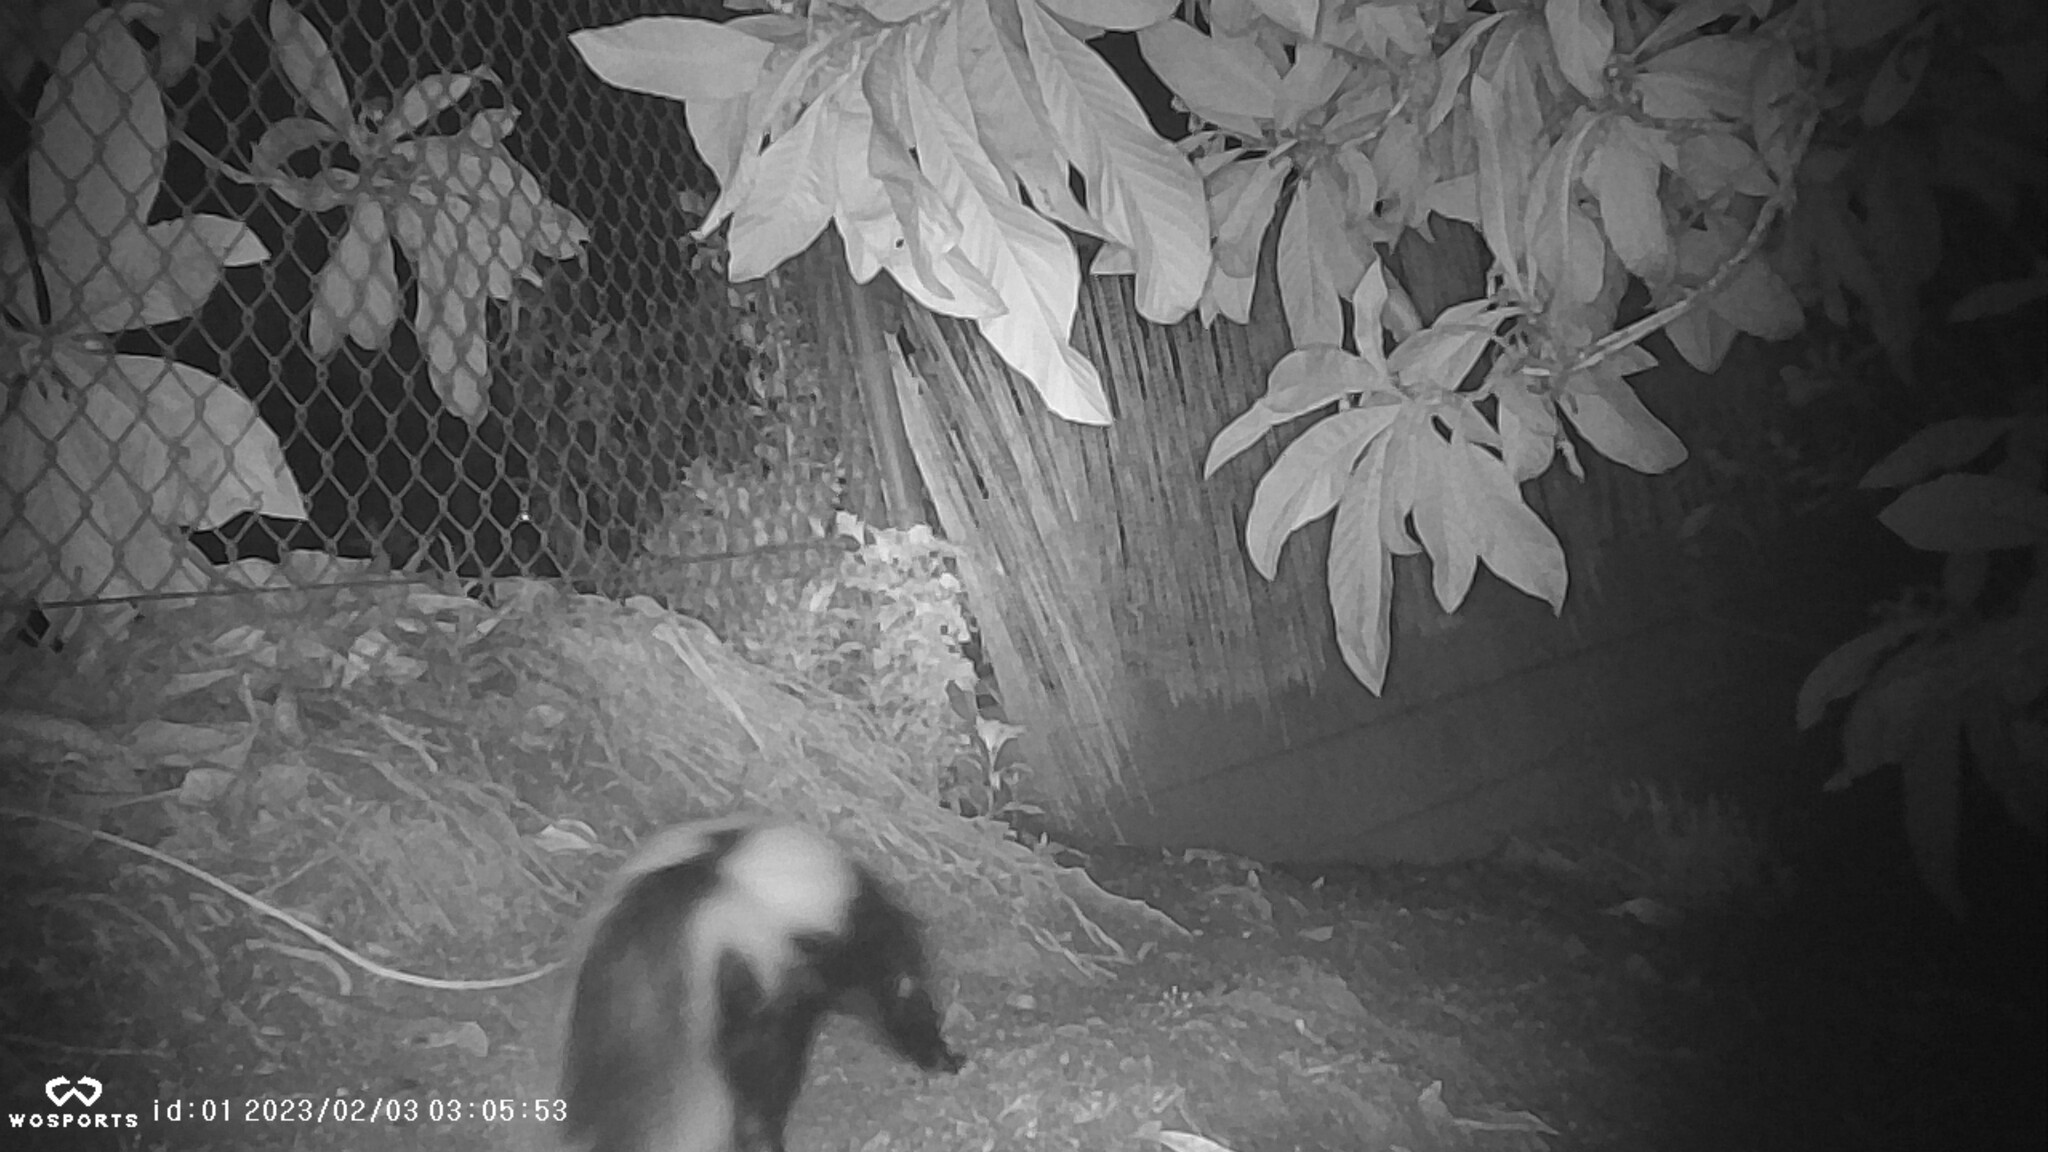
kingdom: Animalia
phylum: Chordata
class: Mammalia
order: Carnivora
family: Mephitidae
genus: Mephitis
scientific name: Mephitis mephitis
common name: Striped skunk
